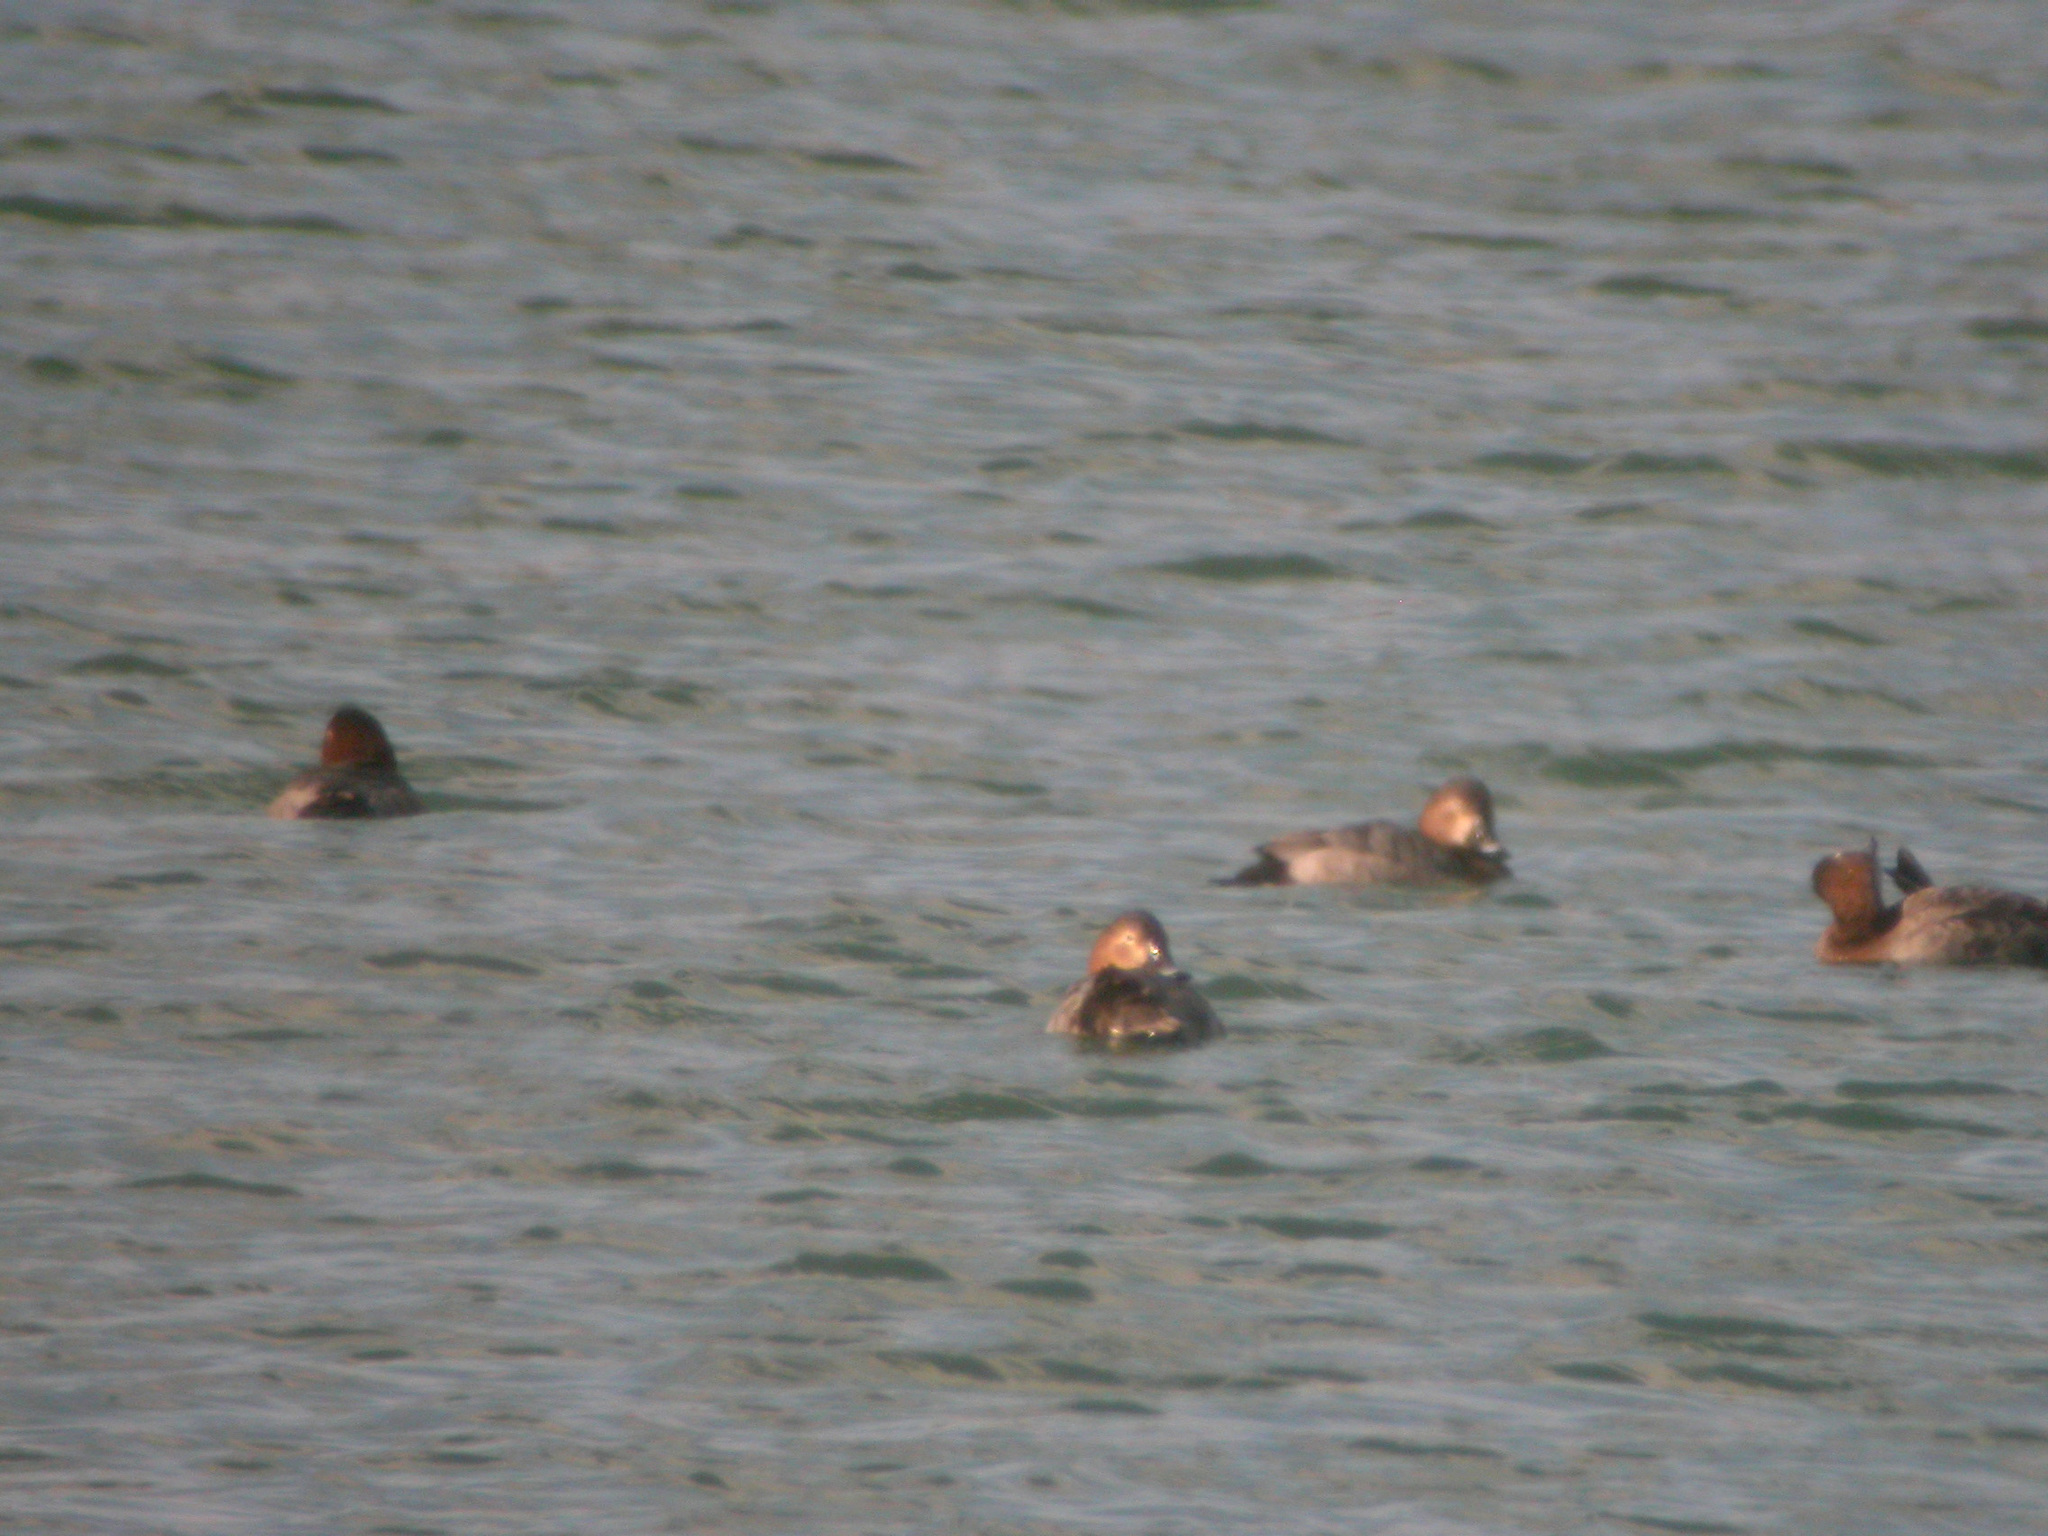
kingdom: Animalia
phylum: Chordata
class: Aves
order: Anseriformes
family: Anatidae
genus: Aythya
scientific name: Aythya ferina
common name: Common pochard
